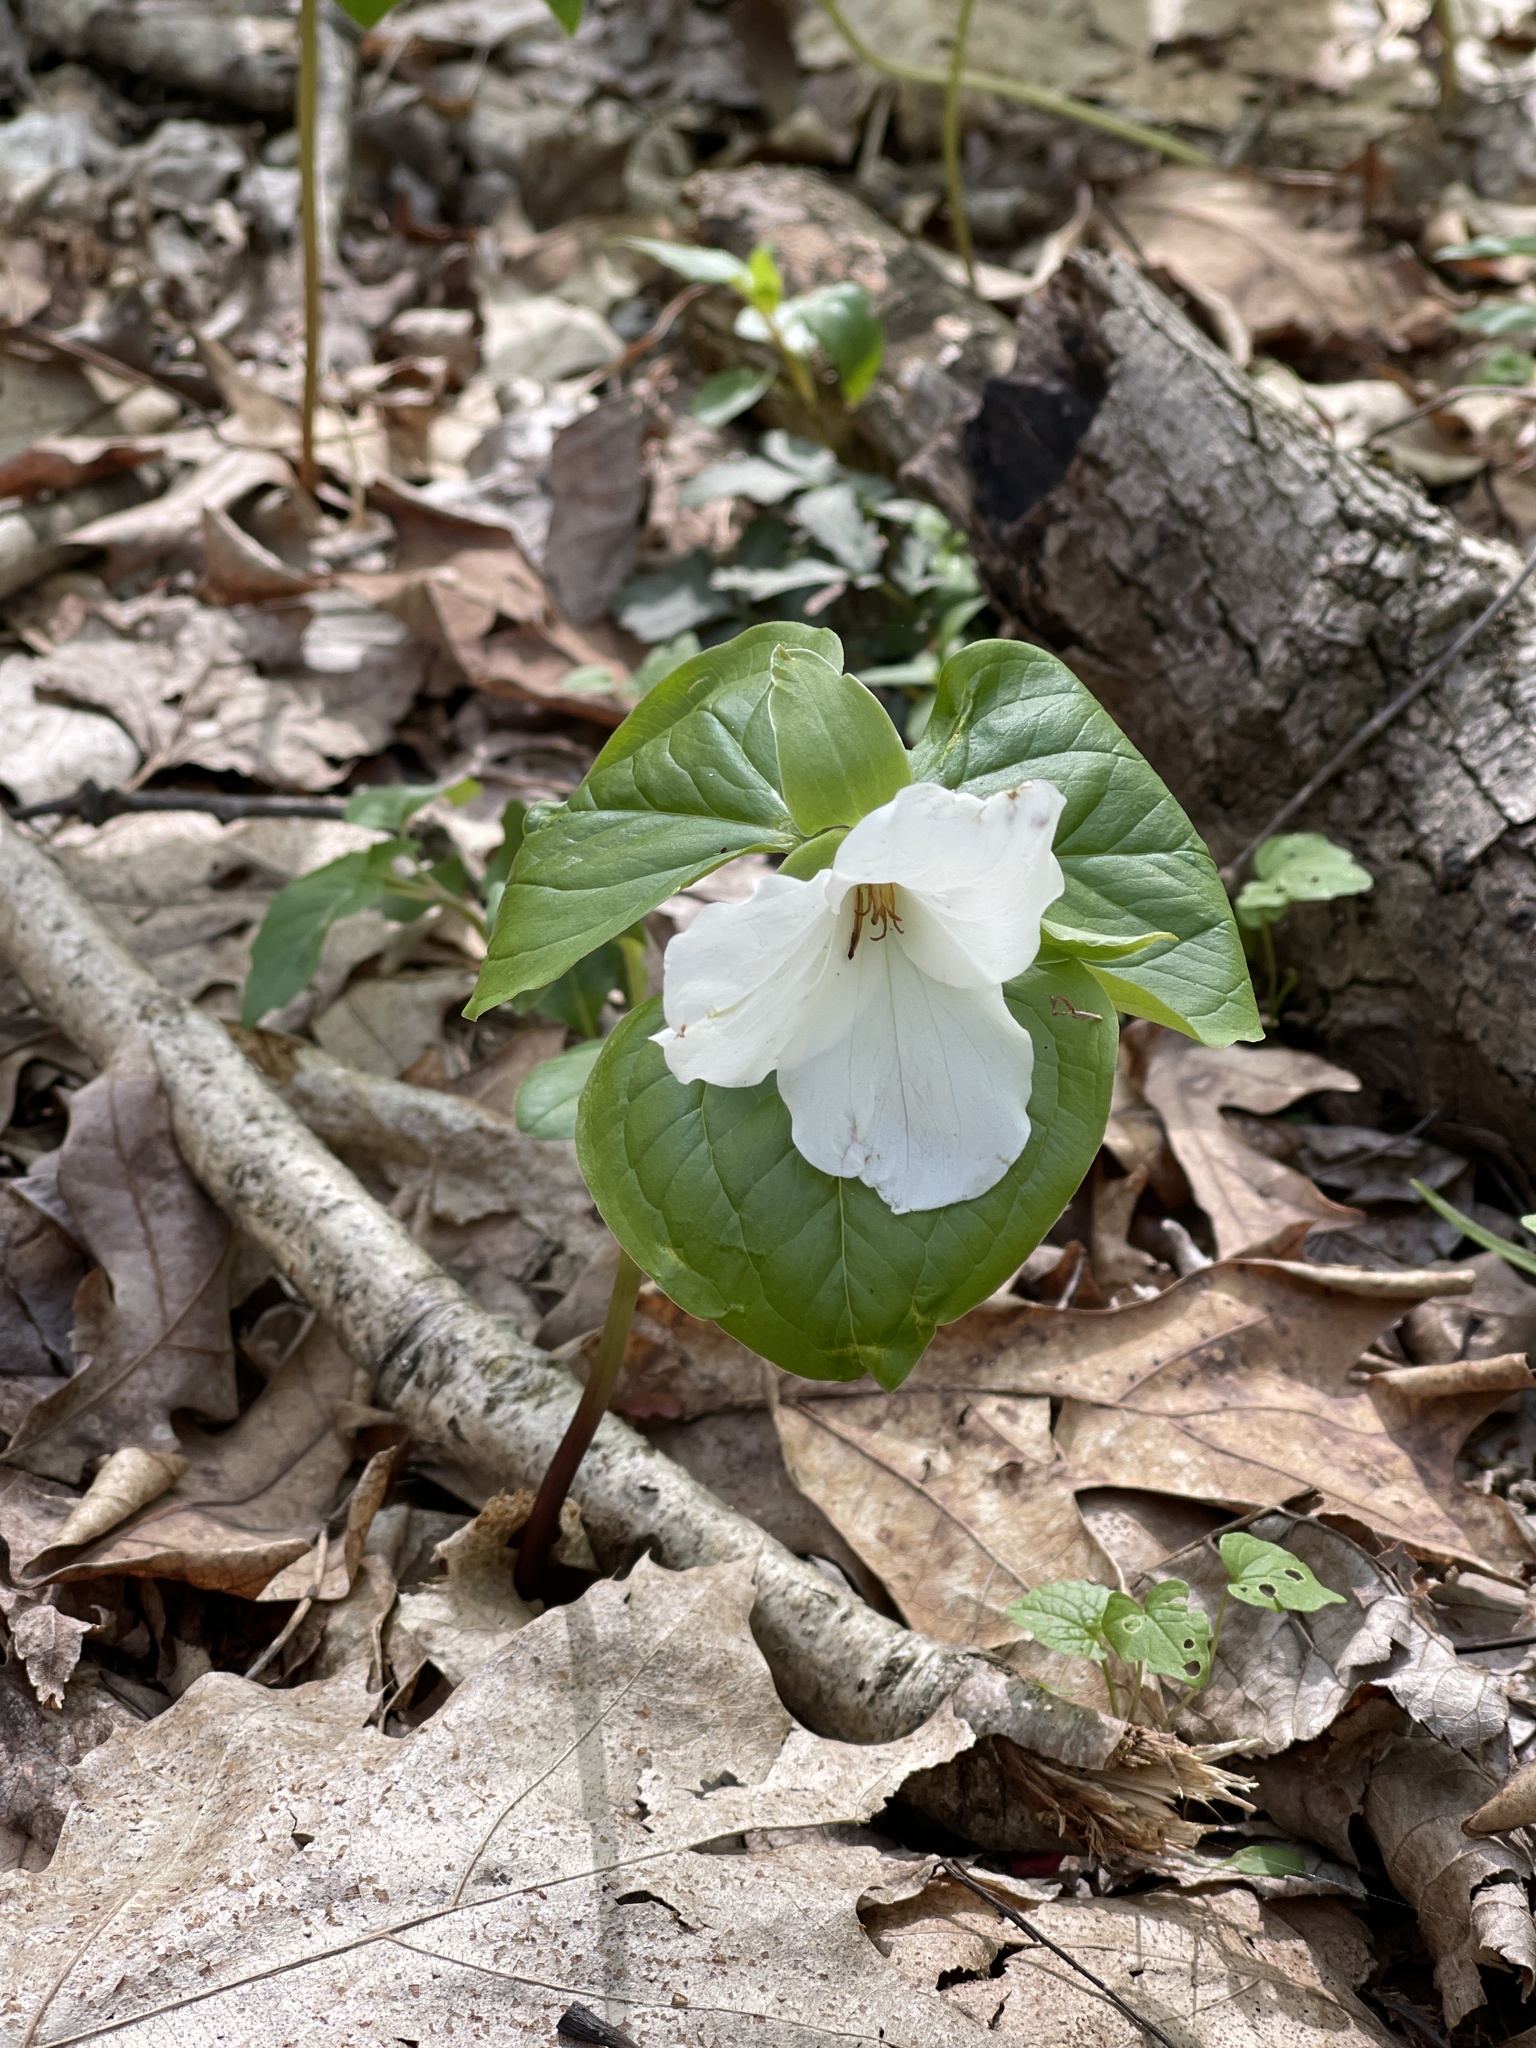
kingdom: Plantae
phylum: Tracheophyta
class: Liliopsida
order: Liliales
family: Melanthiaceae
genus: Trillium
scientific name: Trillium grandiflorum
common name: Great white trillium
